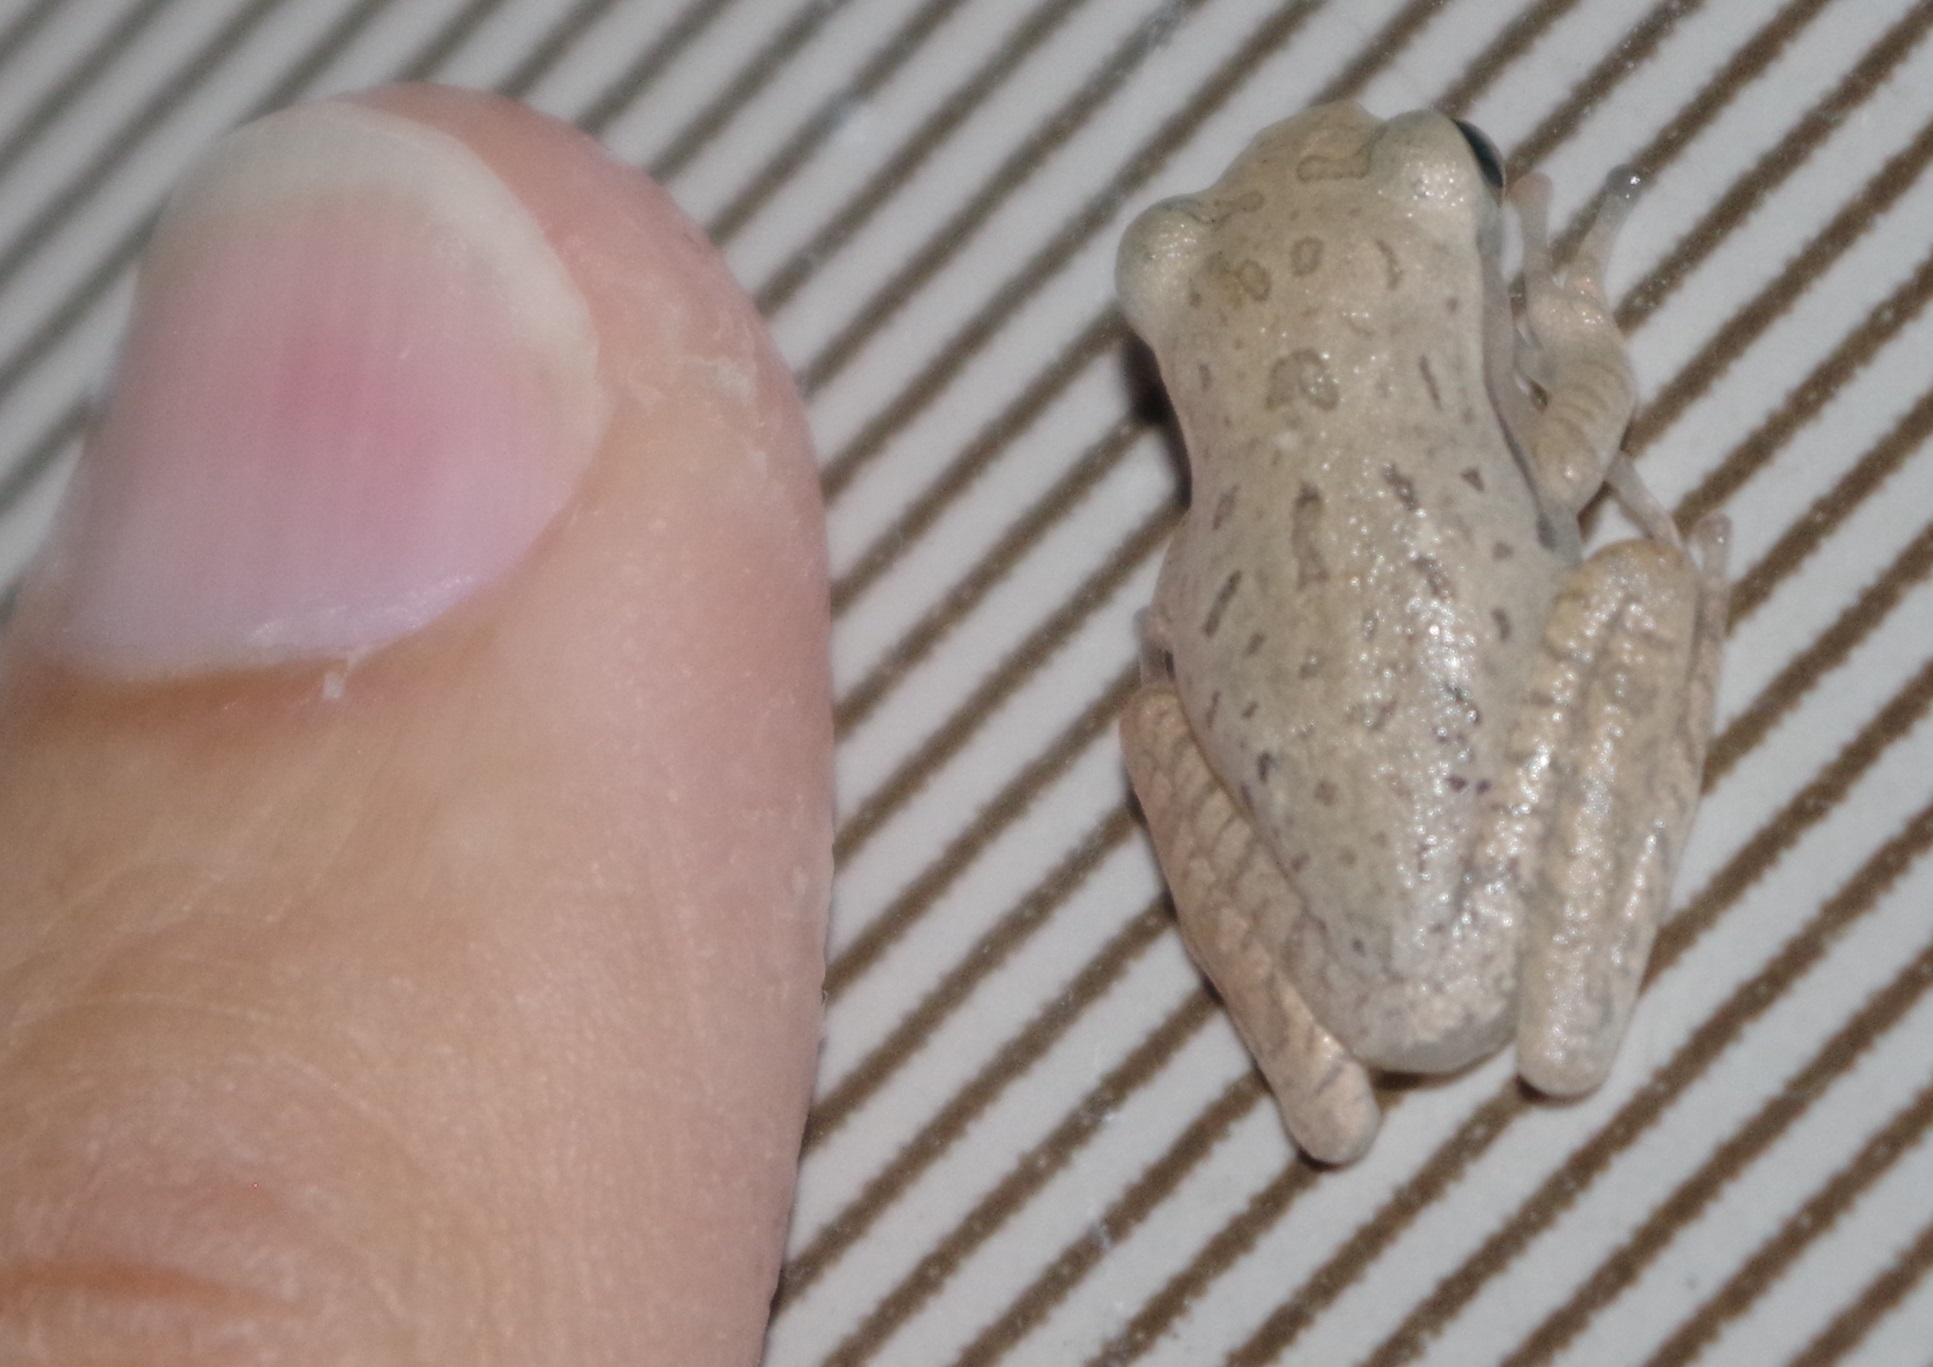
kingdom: Animalia
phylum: Chordata
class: Amphibia
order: Anura
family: Rhacophoridae
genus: Polypedates
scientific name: Polypedates leucomystax
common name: Common tree frog/four-lined tree frog
